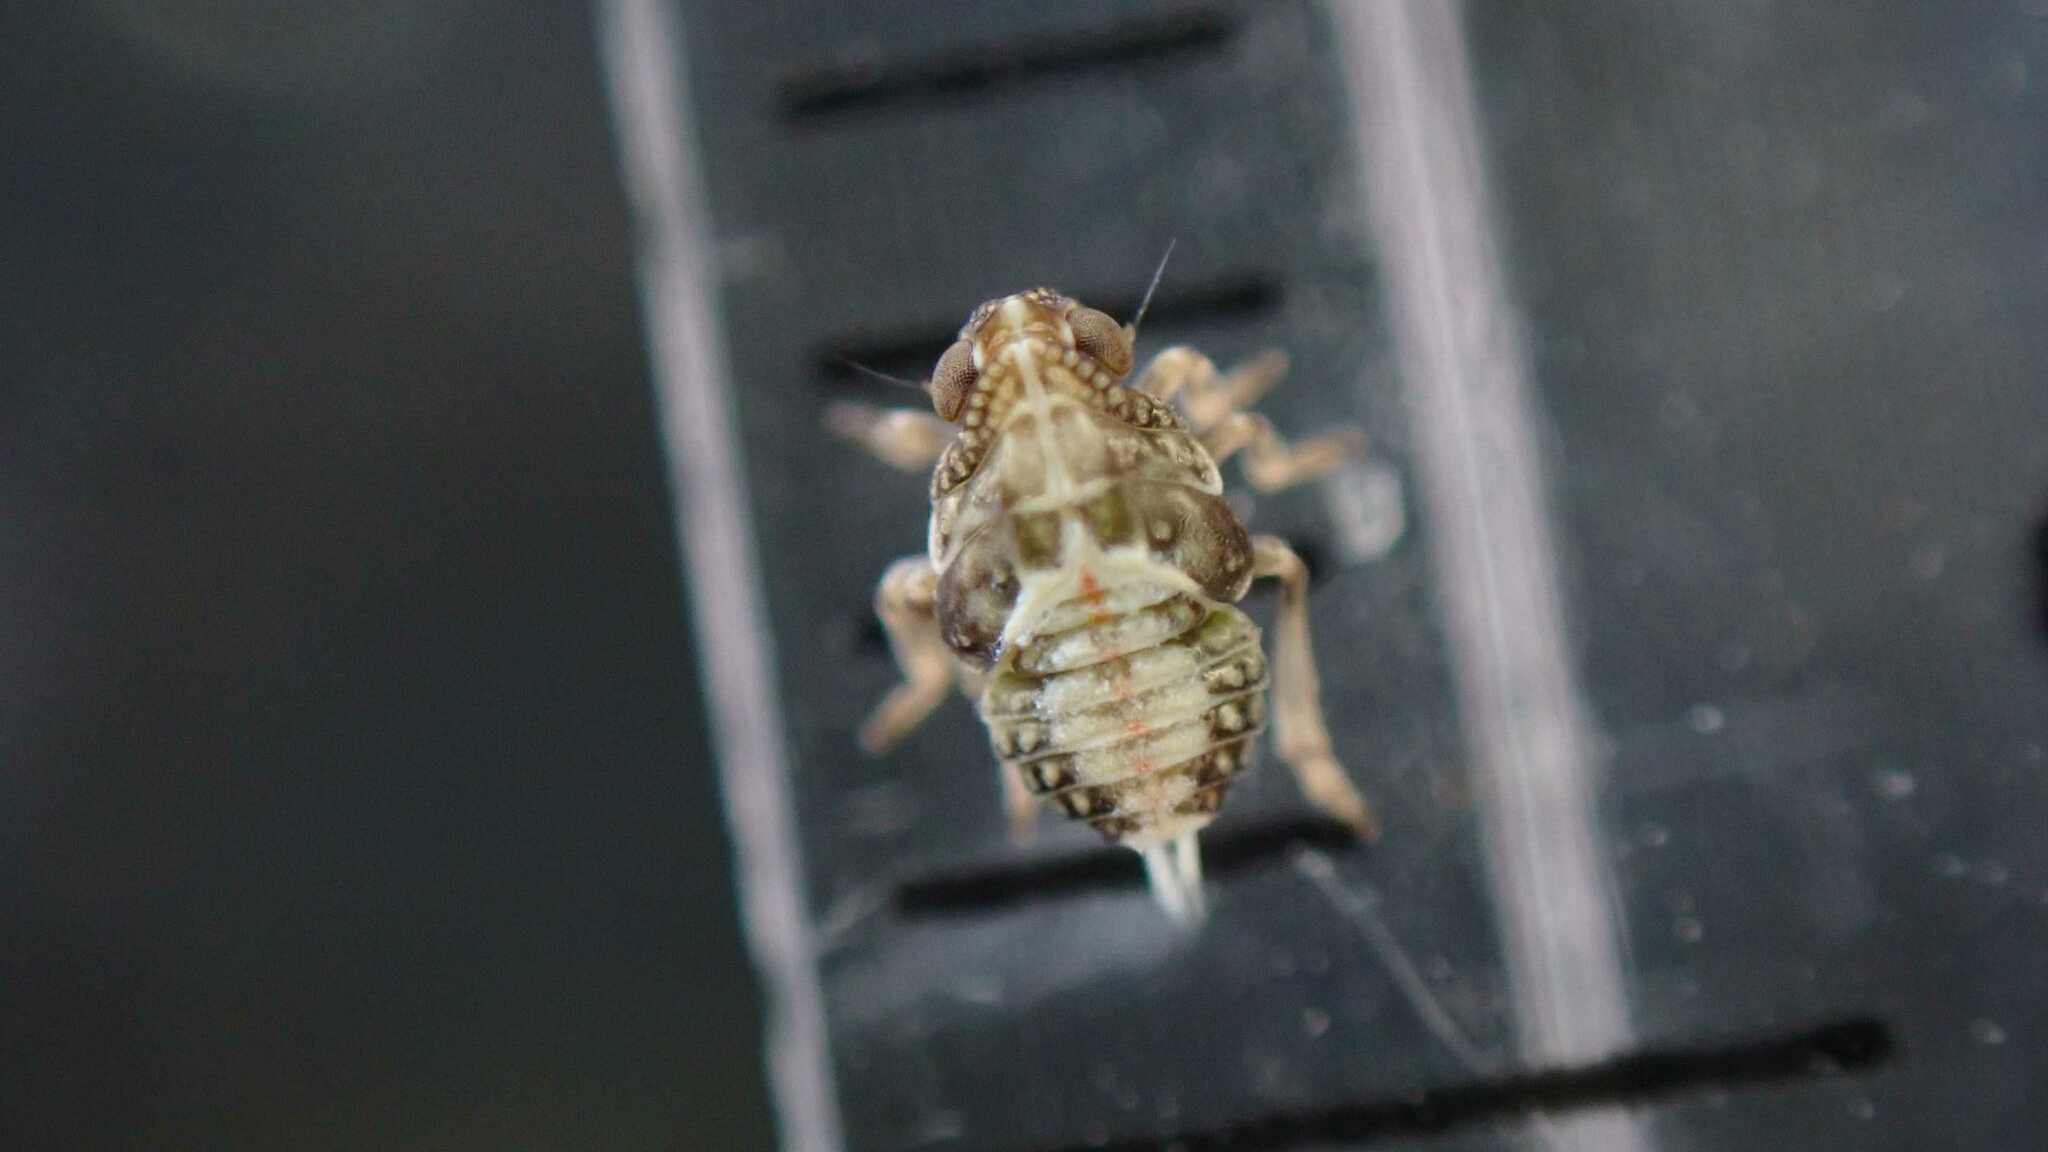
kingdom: Animalia
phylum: Arthropoda
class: Insecta
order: Hemiptera
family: Issidae
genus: Issus
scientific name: Issus
